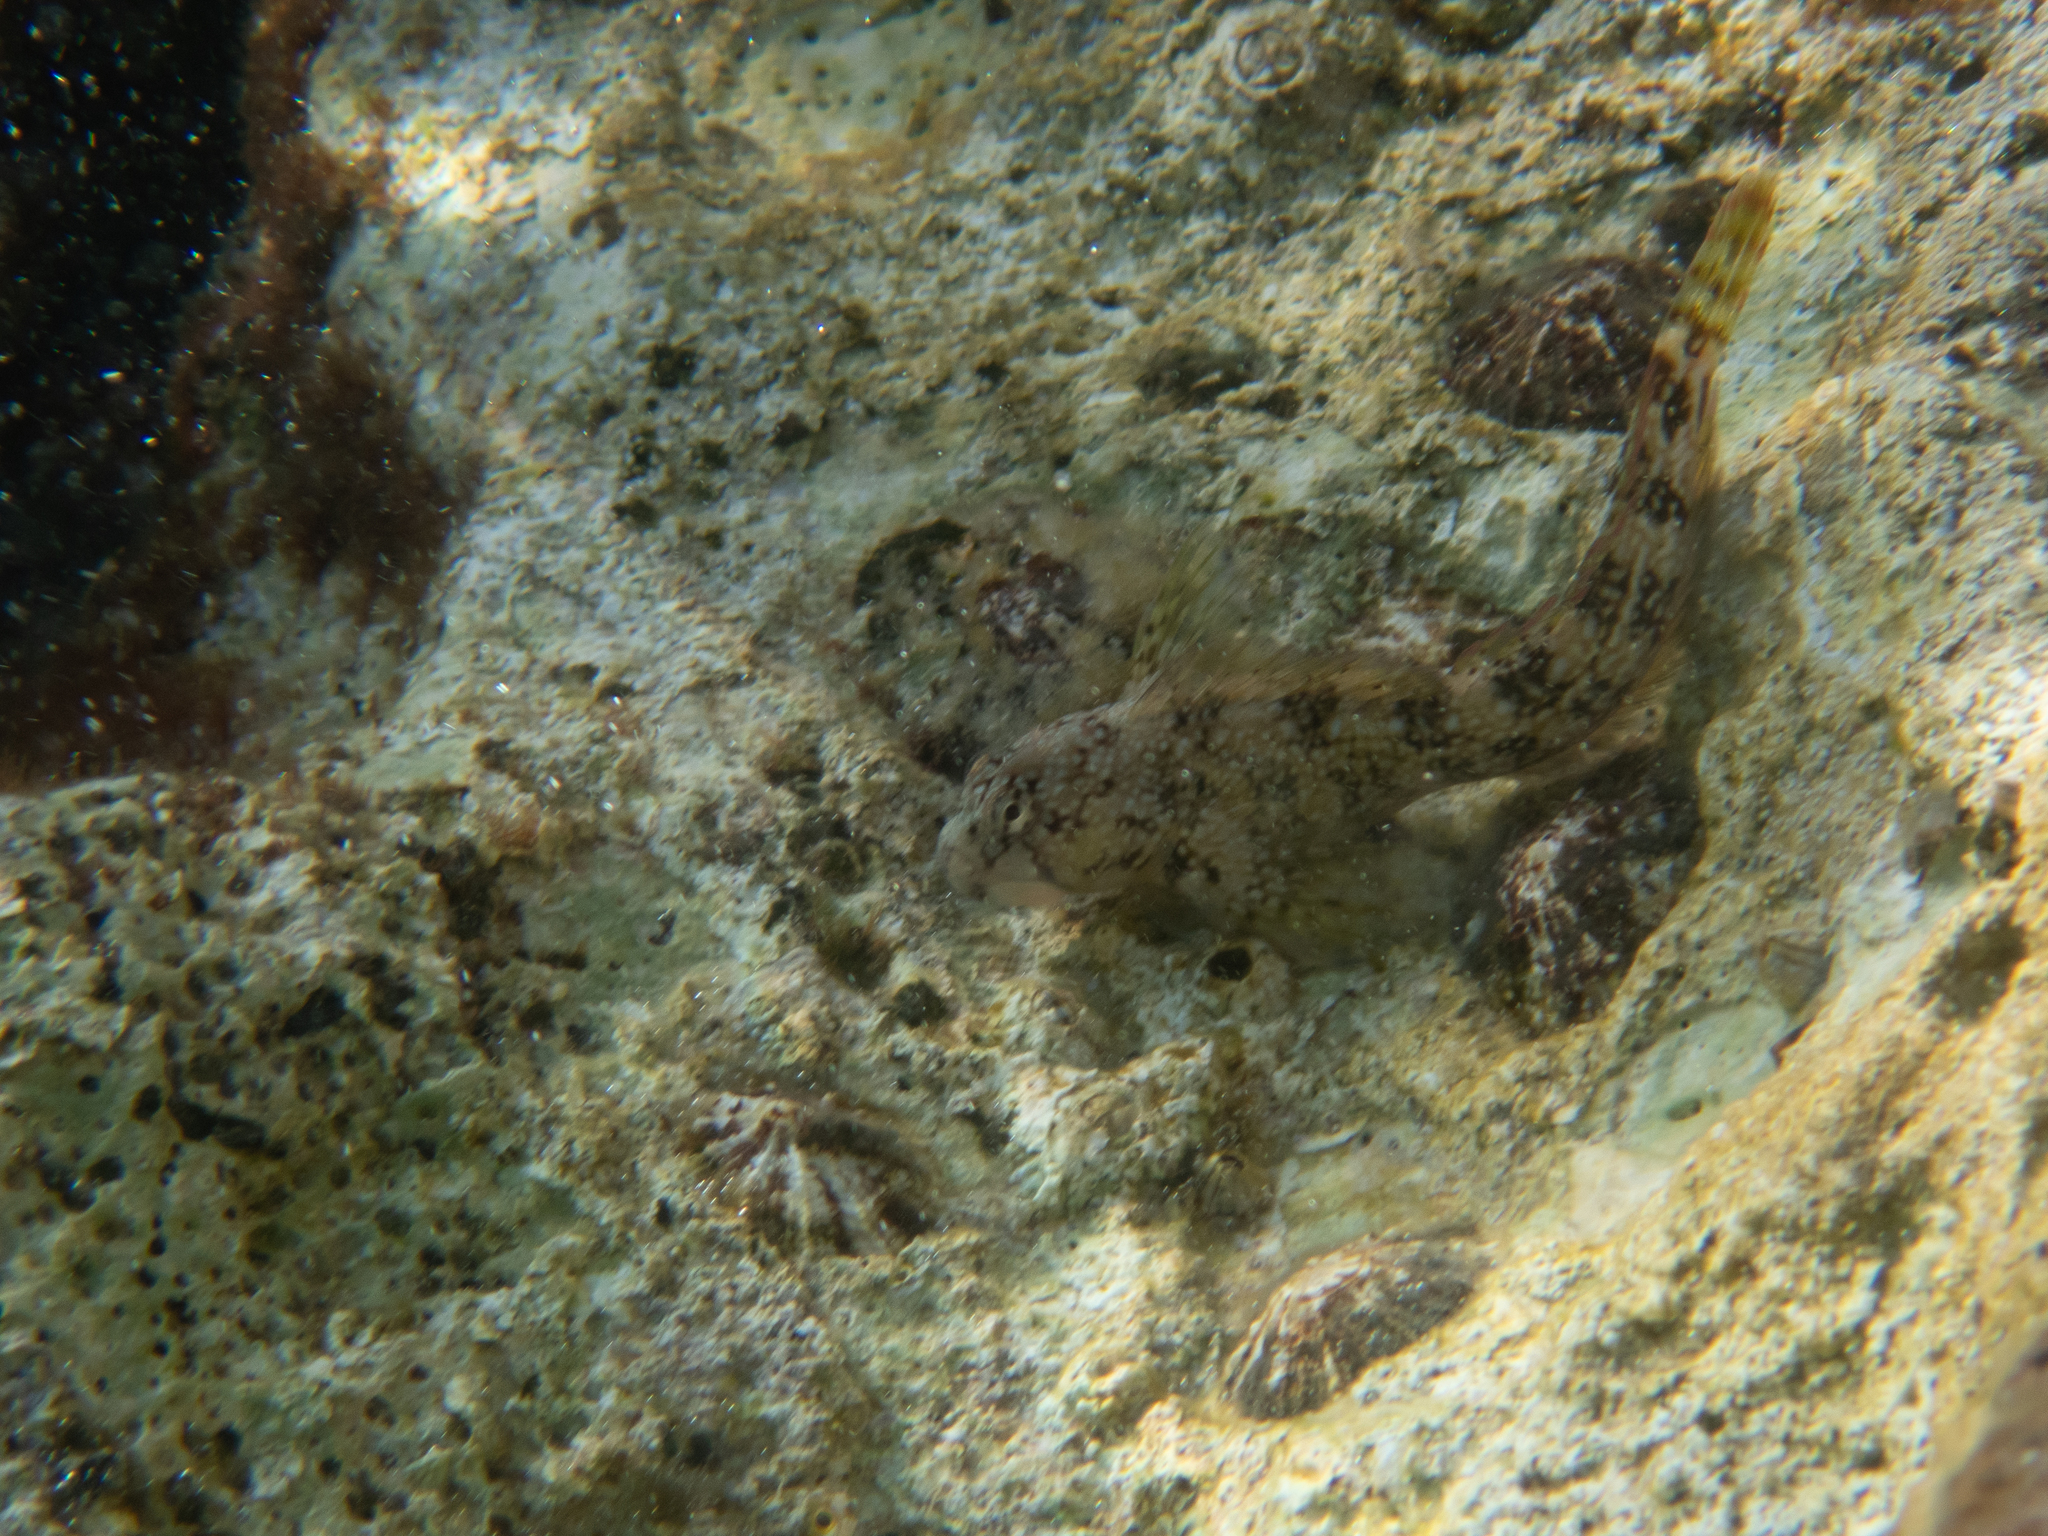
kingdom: Animalia
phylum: Chordata
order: Perciformes
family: Blenniidae
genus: Coryphoblennius
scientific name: Coryphoblennius galerita
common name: Montagu's blenny
